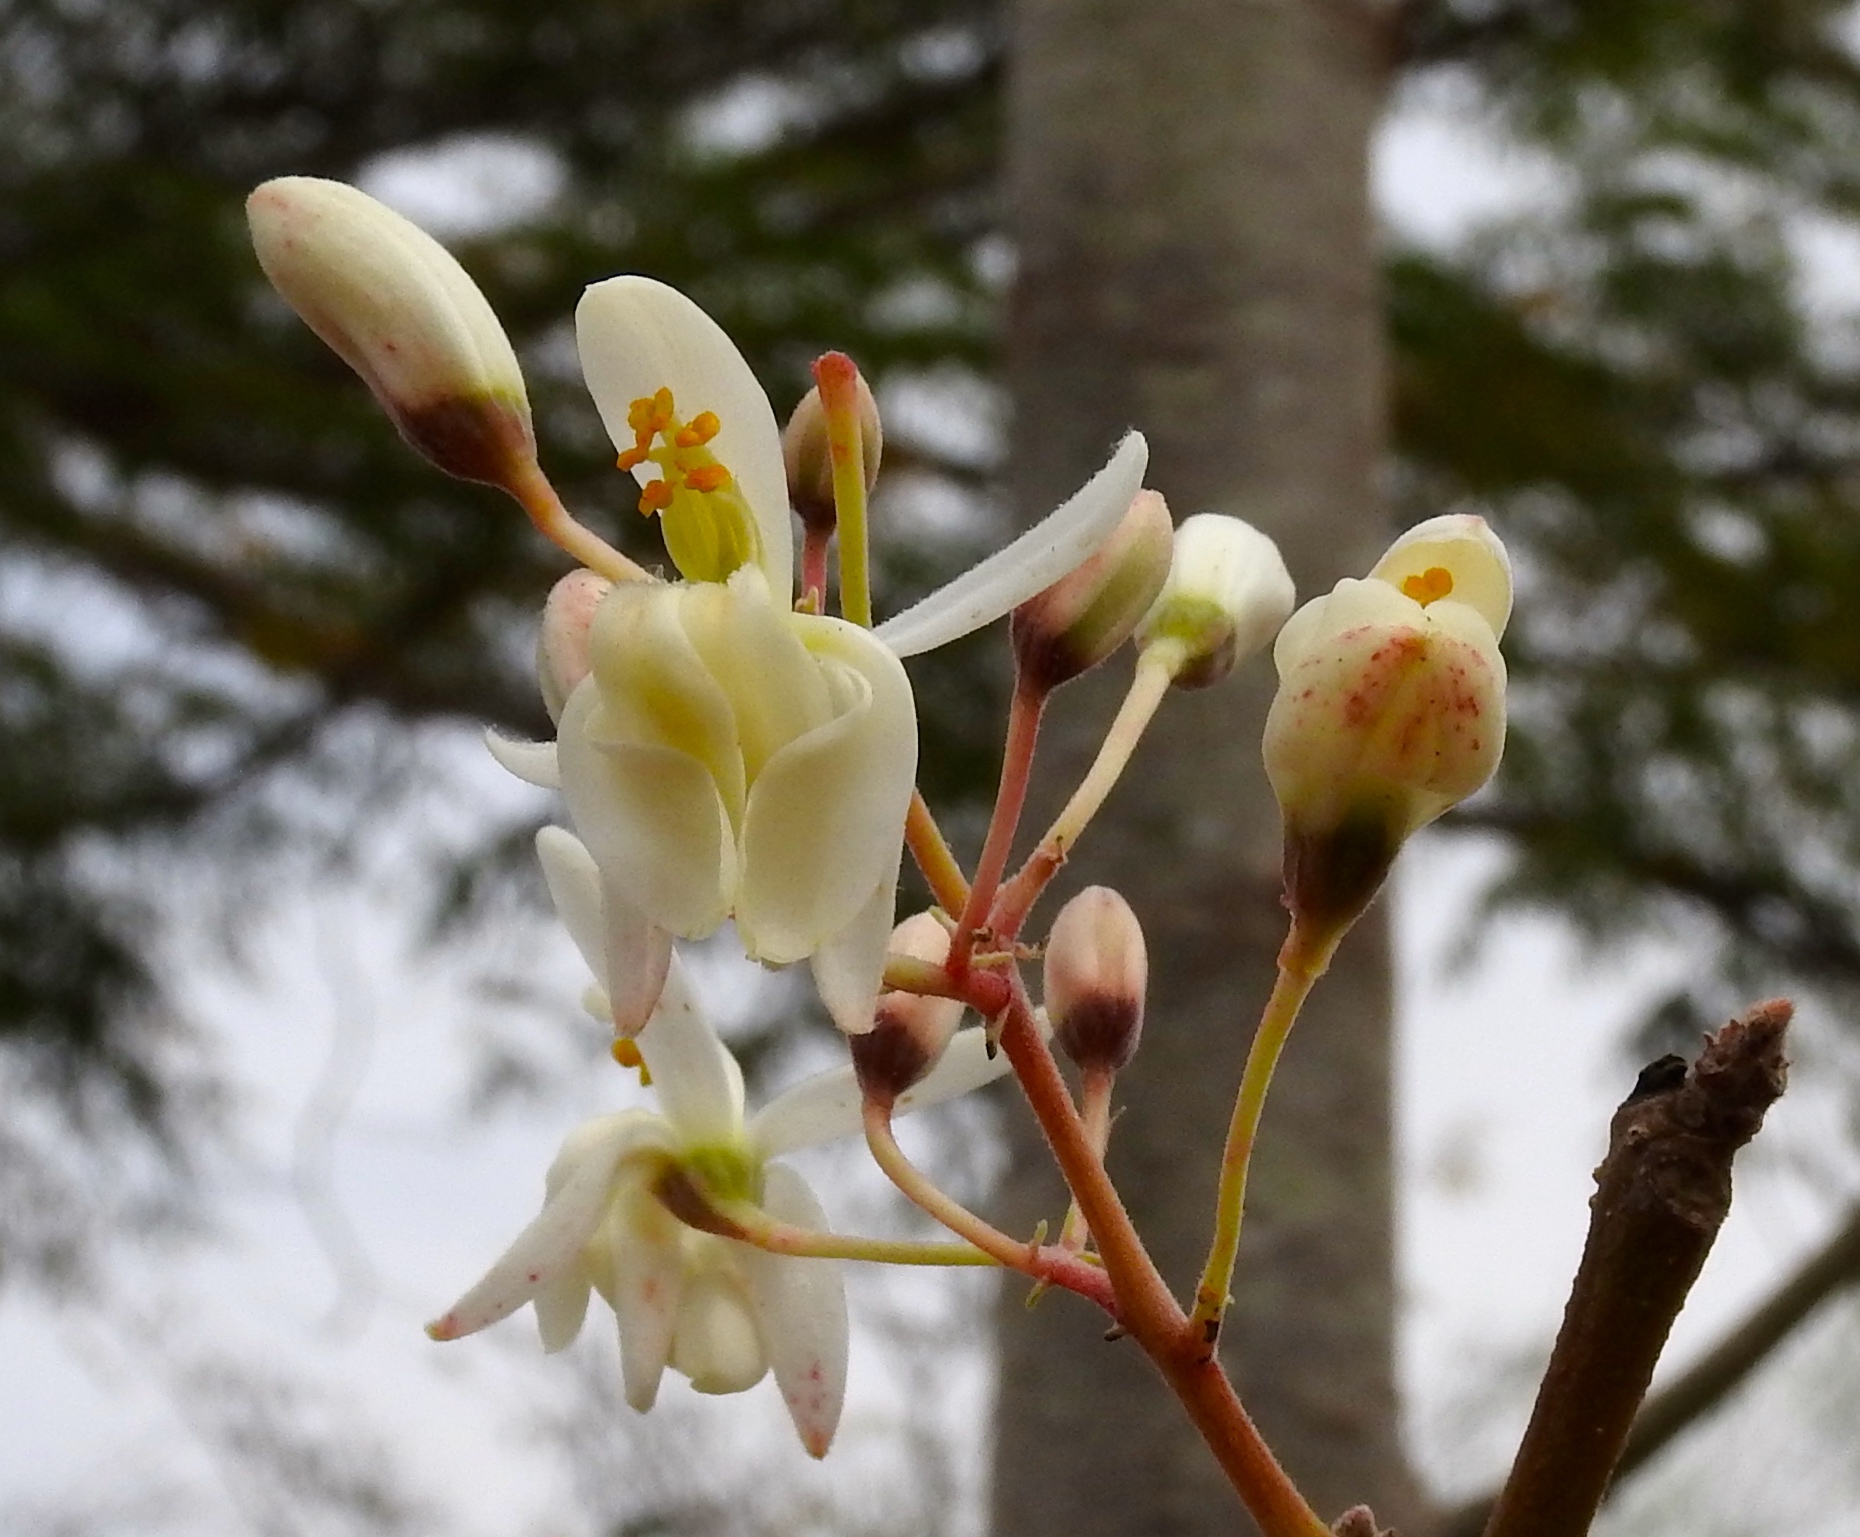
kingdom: Plantae
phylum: Tracheophyta
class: Magnoliopsida
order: Brassicales
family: Moringaceae
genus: Moringa
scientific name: Moringa oleifera
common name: Horseradish-tree
